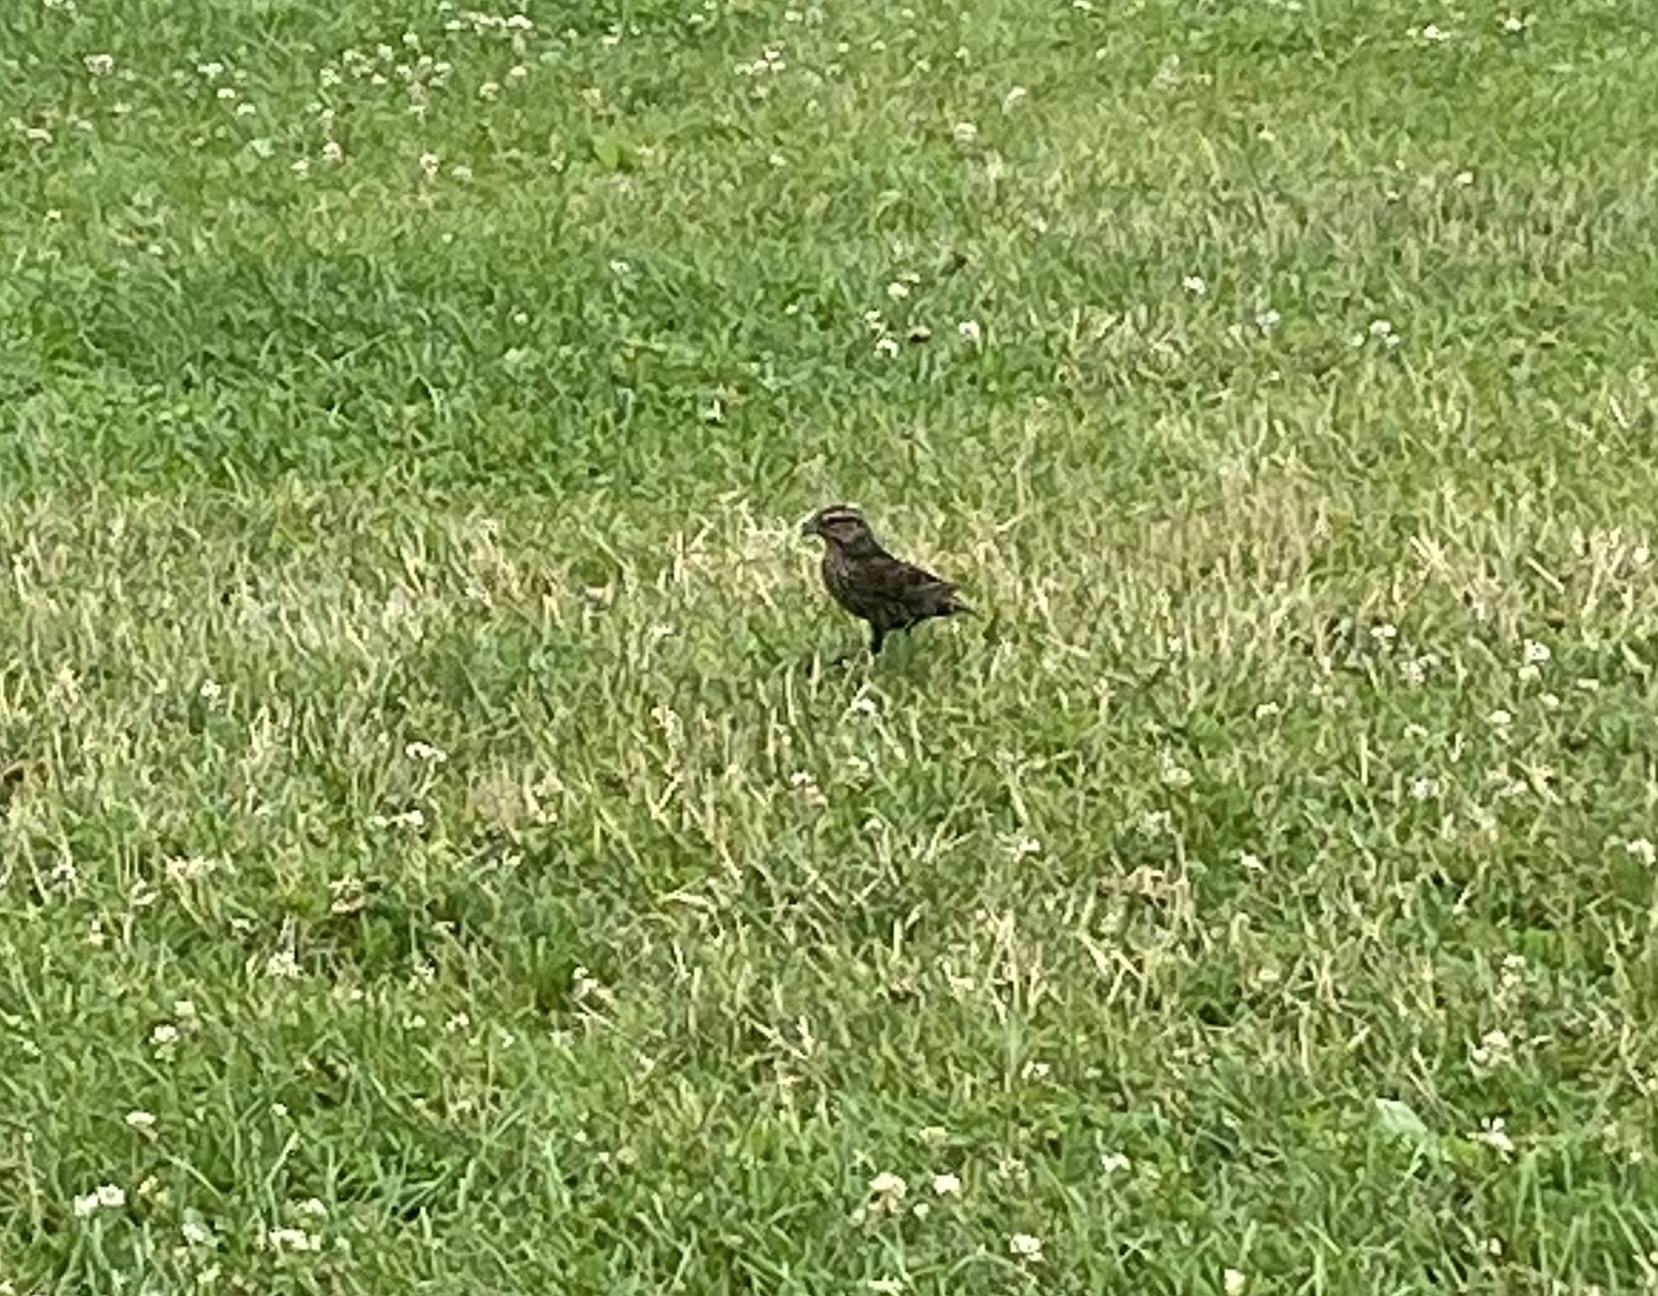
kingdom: Animalia
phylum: Chordata
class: Aves
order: Passeriformes
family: Icteridae
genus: Agelaius
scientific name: Agelaius phoeniceus
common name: Red-winged blackbird
